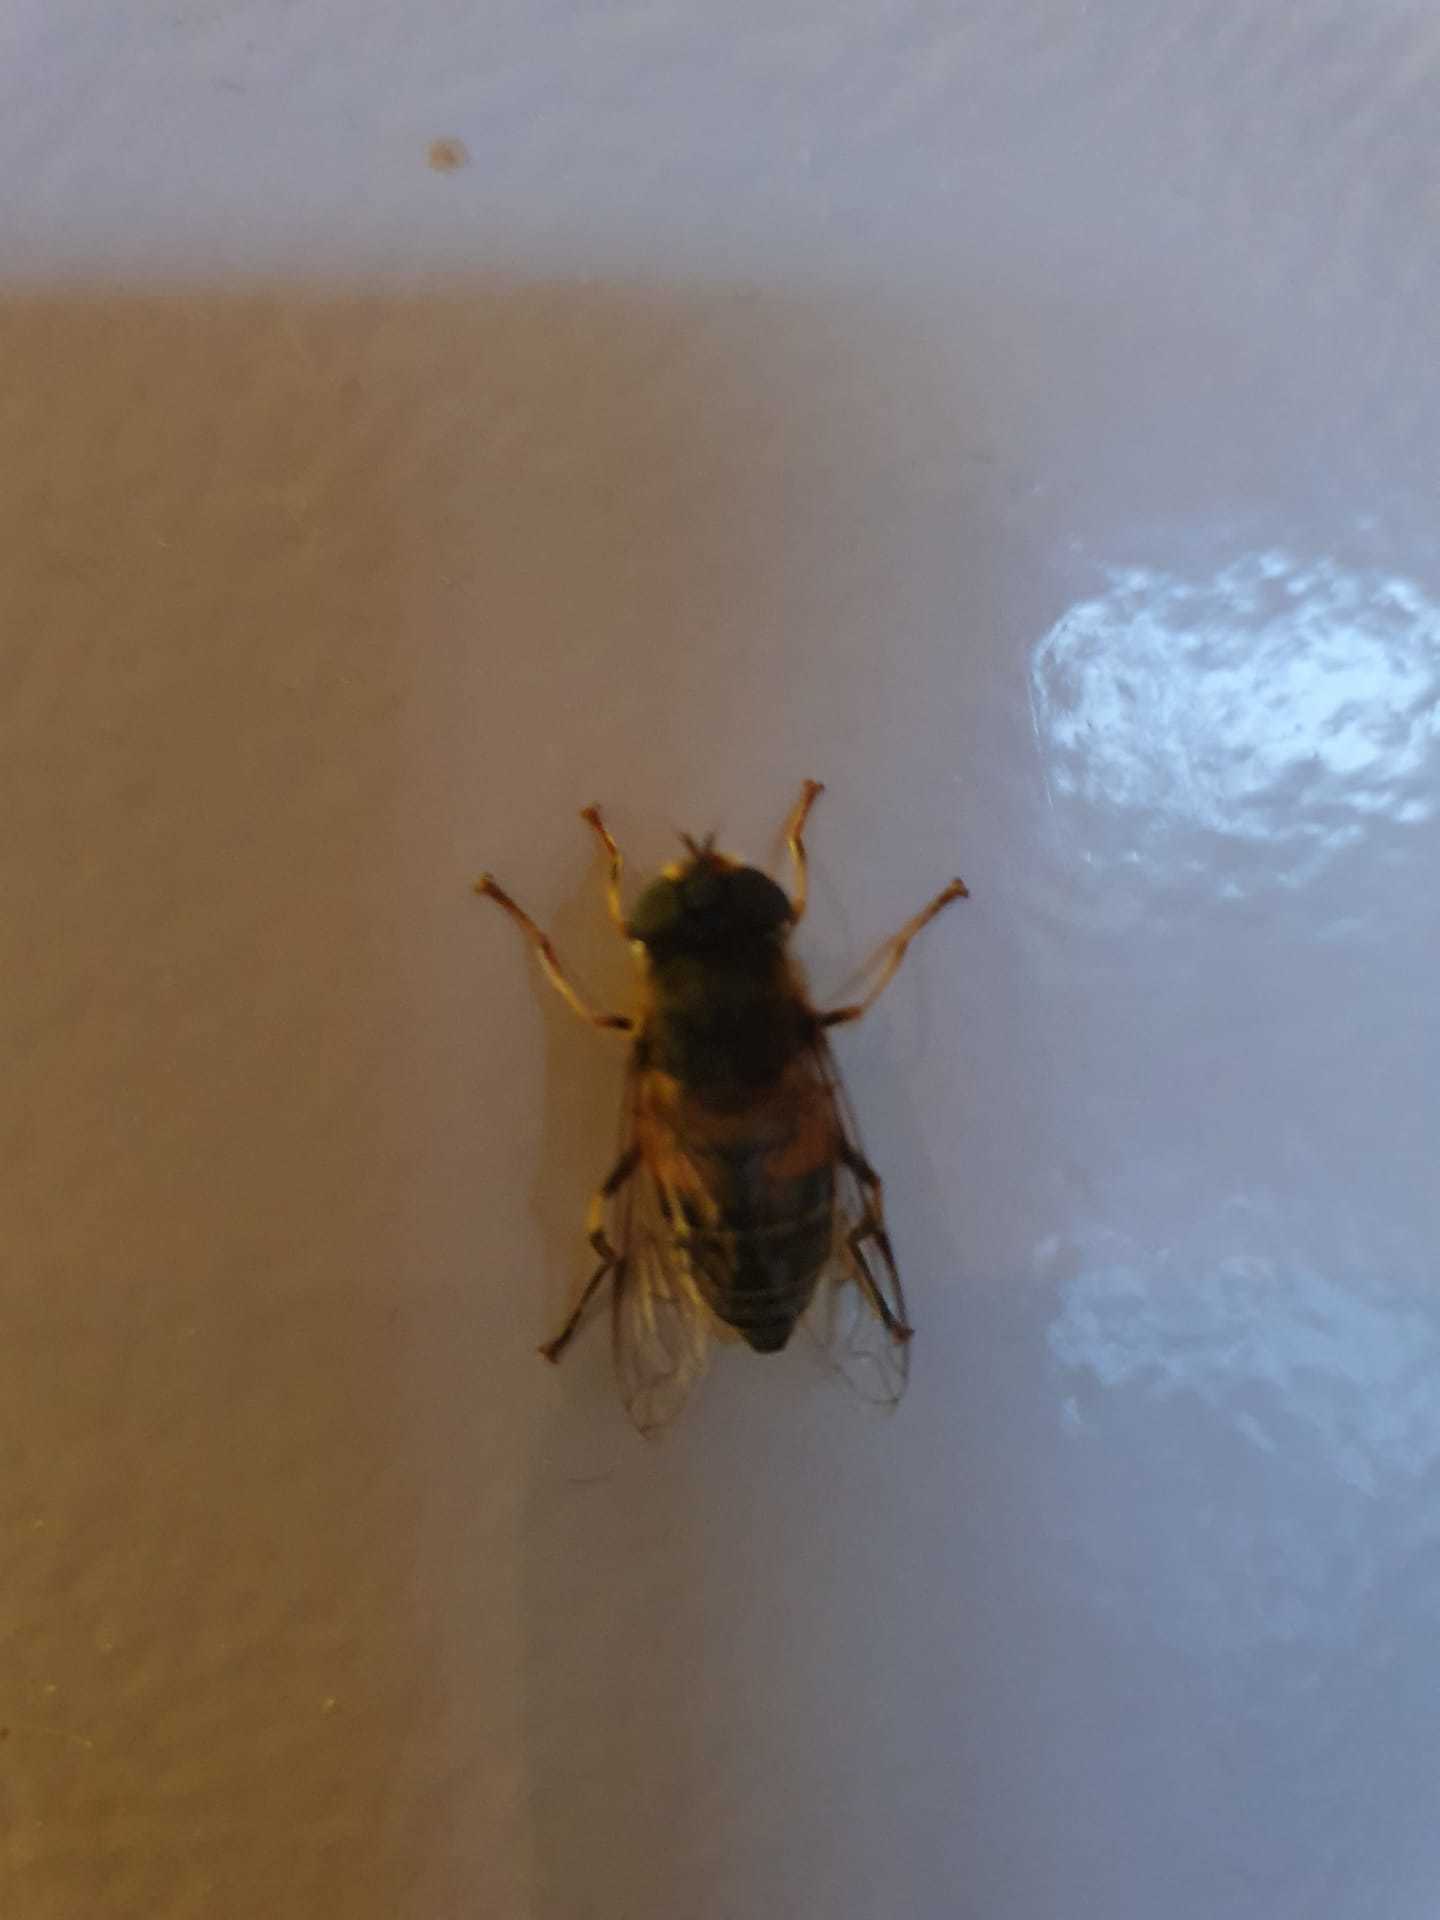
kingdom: Animalia
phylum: Arthropoda
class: Insecta
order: Diptera
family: Syrphidae
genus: Eristalis
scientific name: Eristalis pertinax
